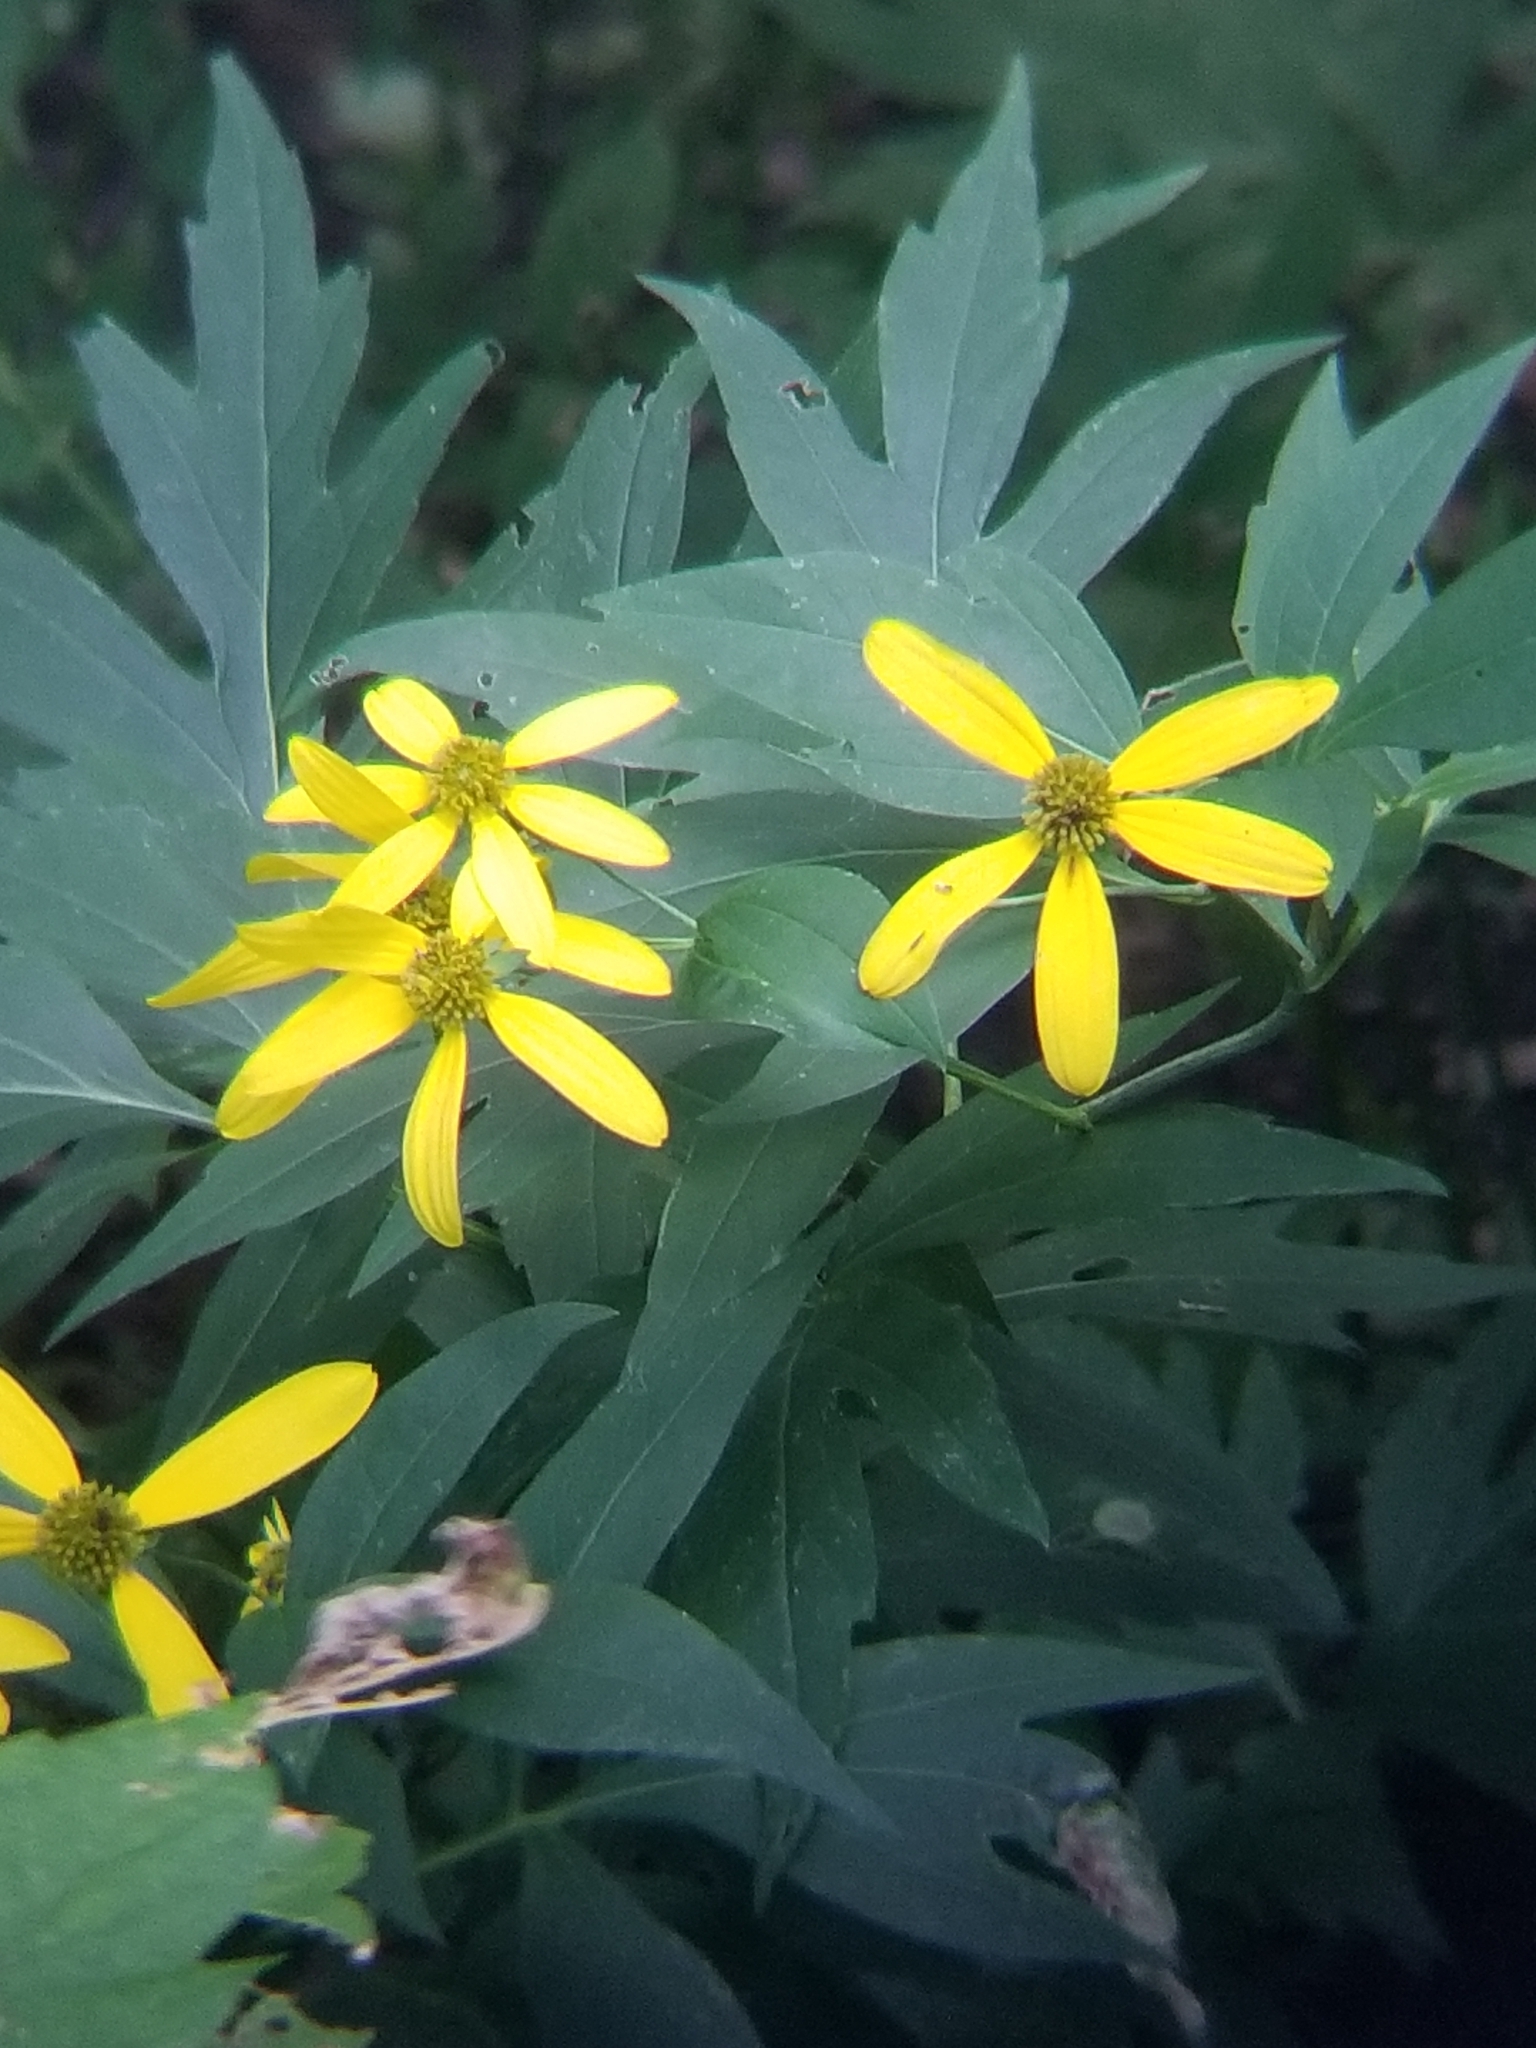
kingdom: Plantae
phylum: Tracheophyta
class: Magnoliopsida
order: Asterales
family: Asteraceae
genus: Rudbeckia
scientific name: Rudbeckia laciniata
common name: Coneflower
